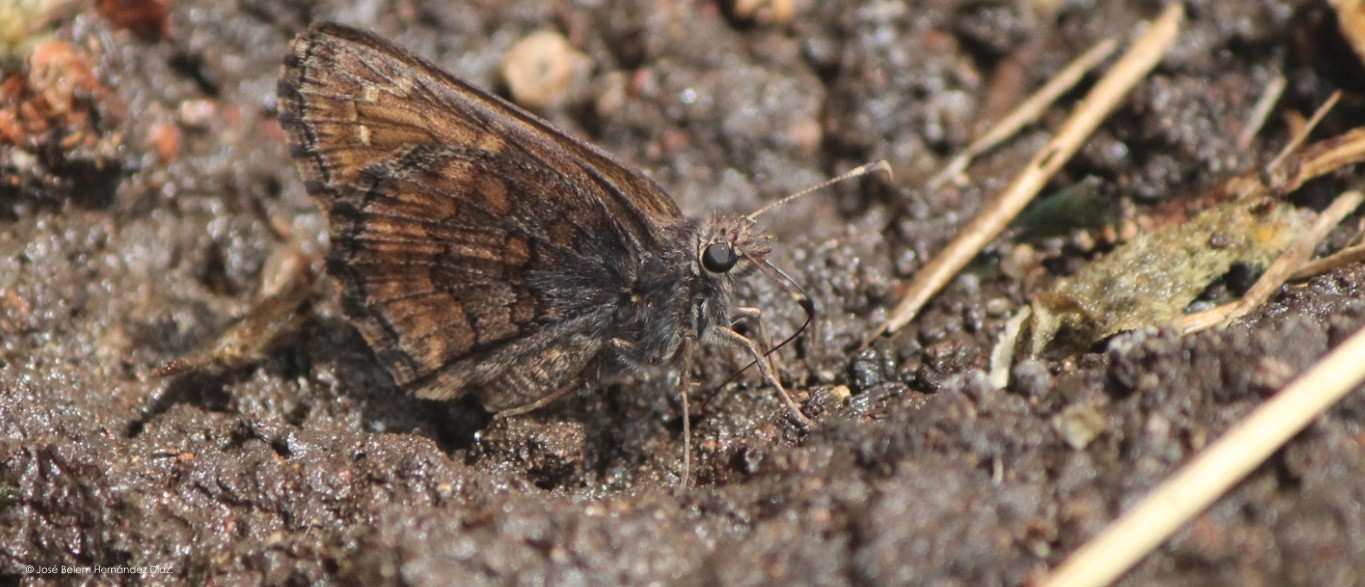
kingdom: Animalia
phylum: Arthropoda
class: Insecta
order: Lepidoptera
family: Hesperiidae
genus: Lobotractus
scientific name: Lobotractus
